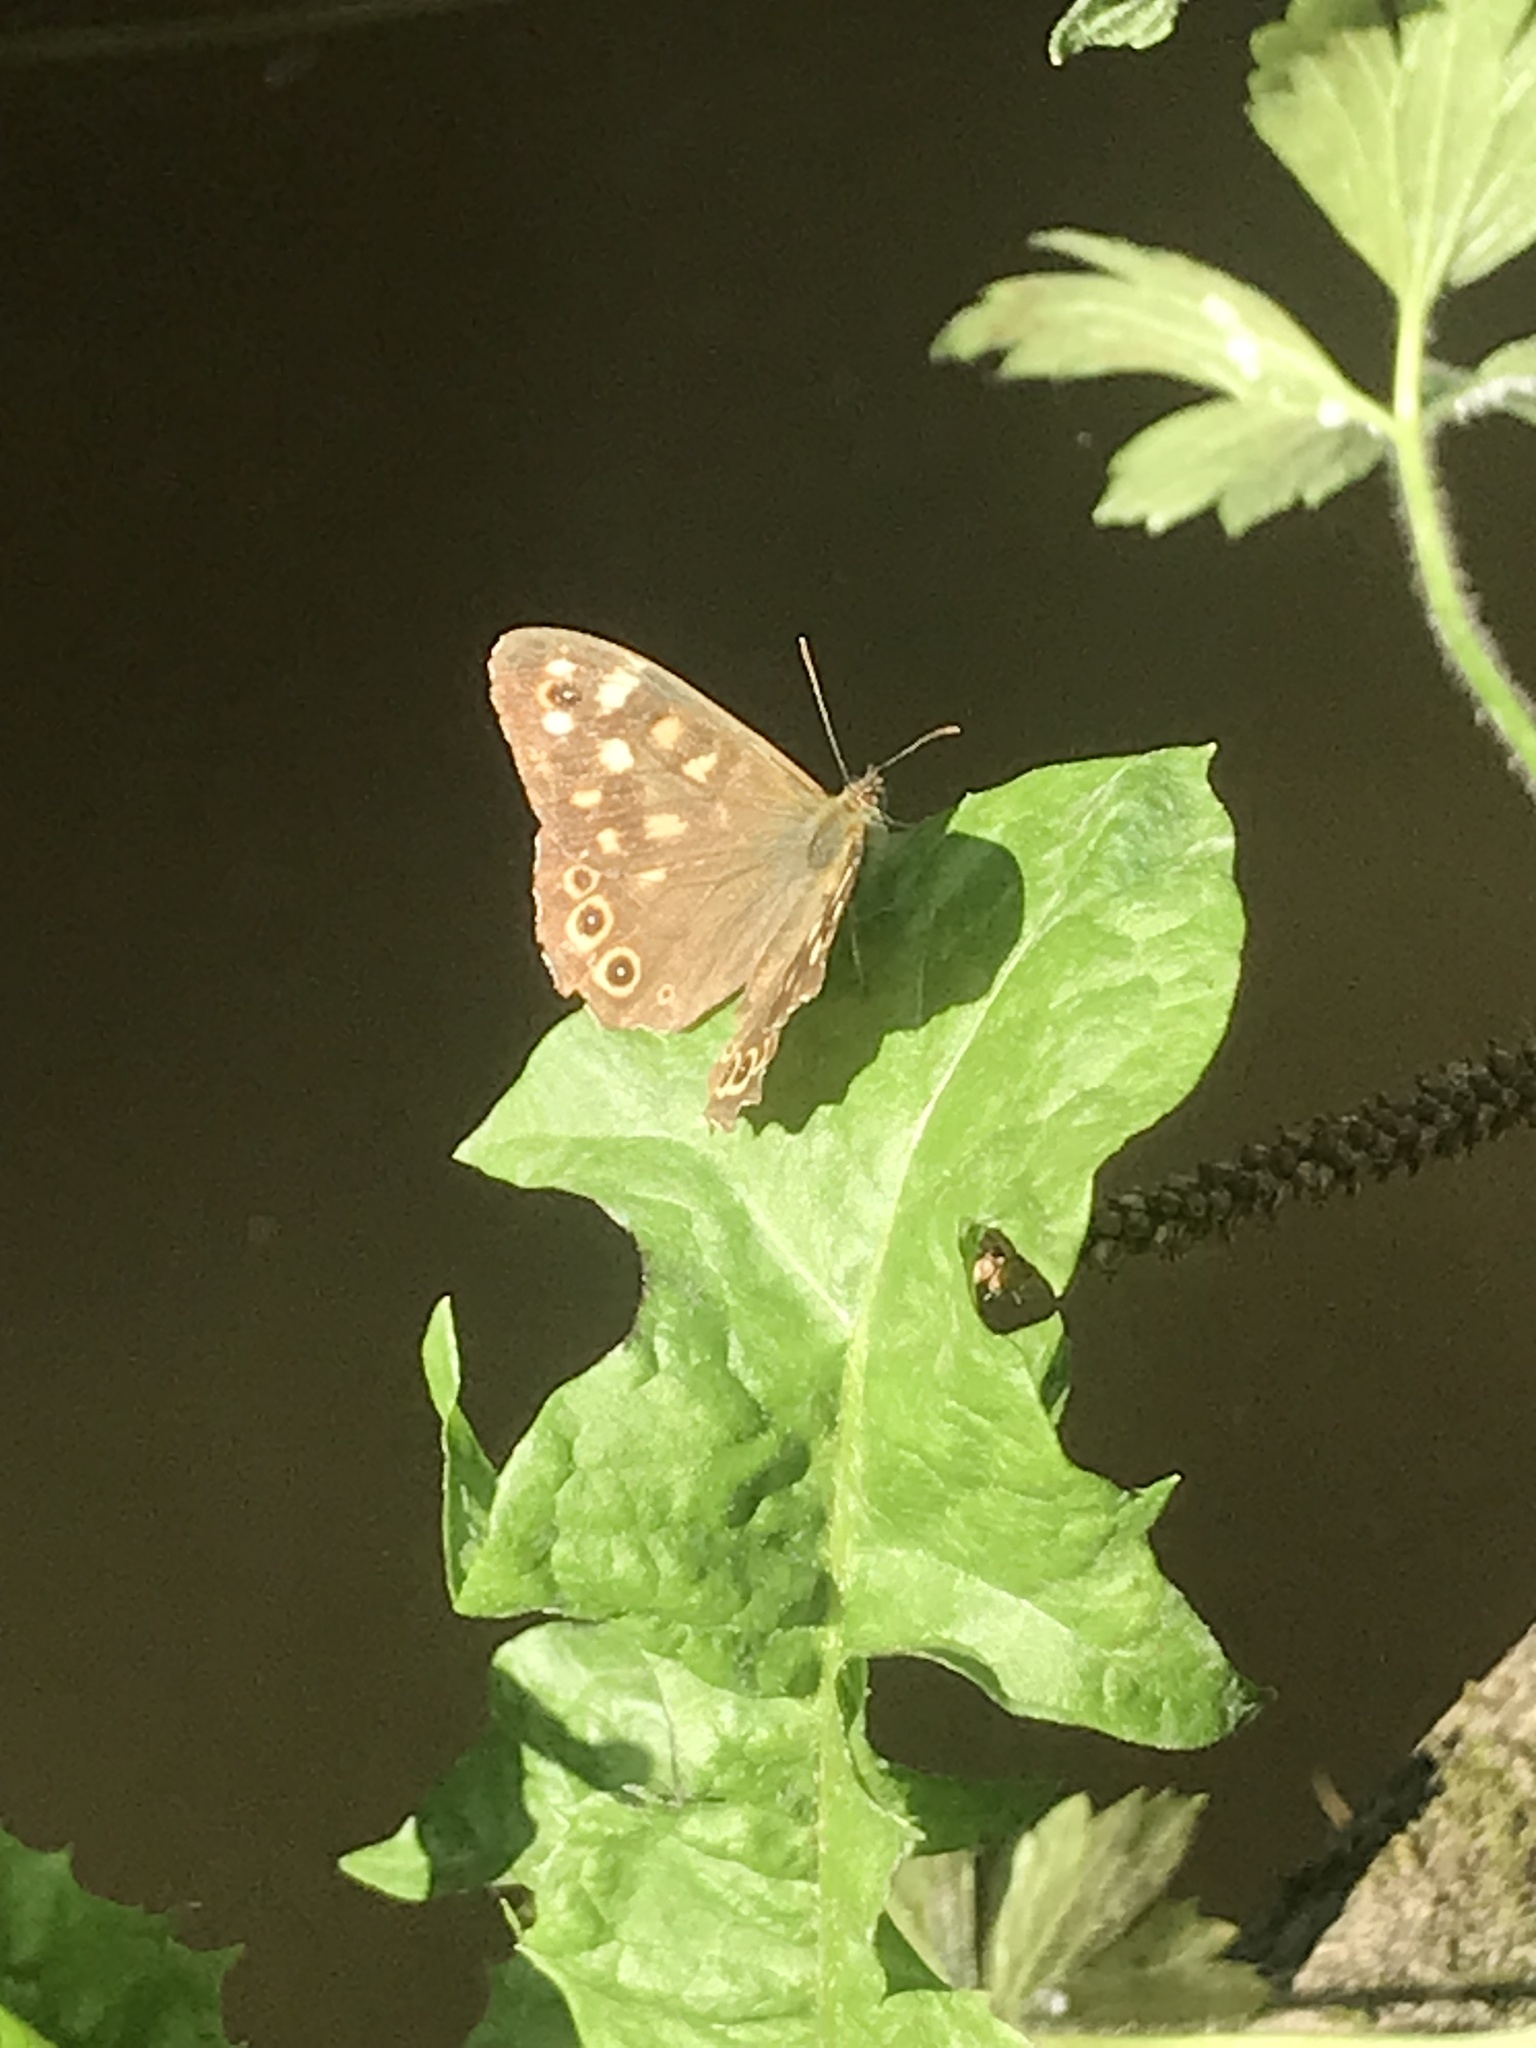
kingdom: Animalia
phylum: Arthropoda
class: Insecta
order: Lepidoptera
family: Nymphalidae
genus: Pararge
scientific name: Pararge aegeria
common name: Speckled wood
